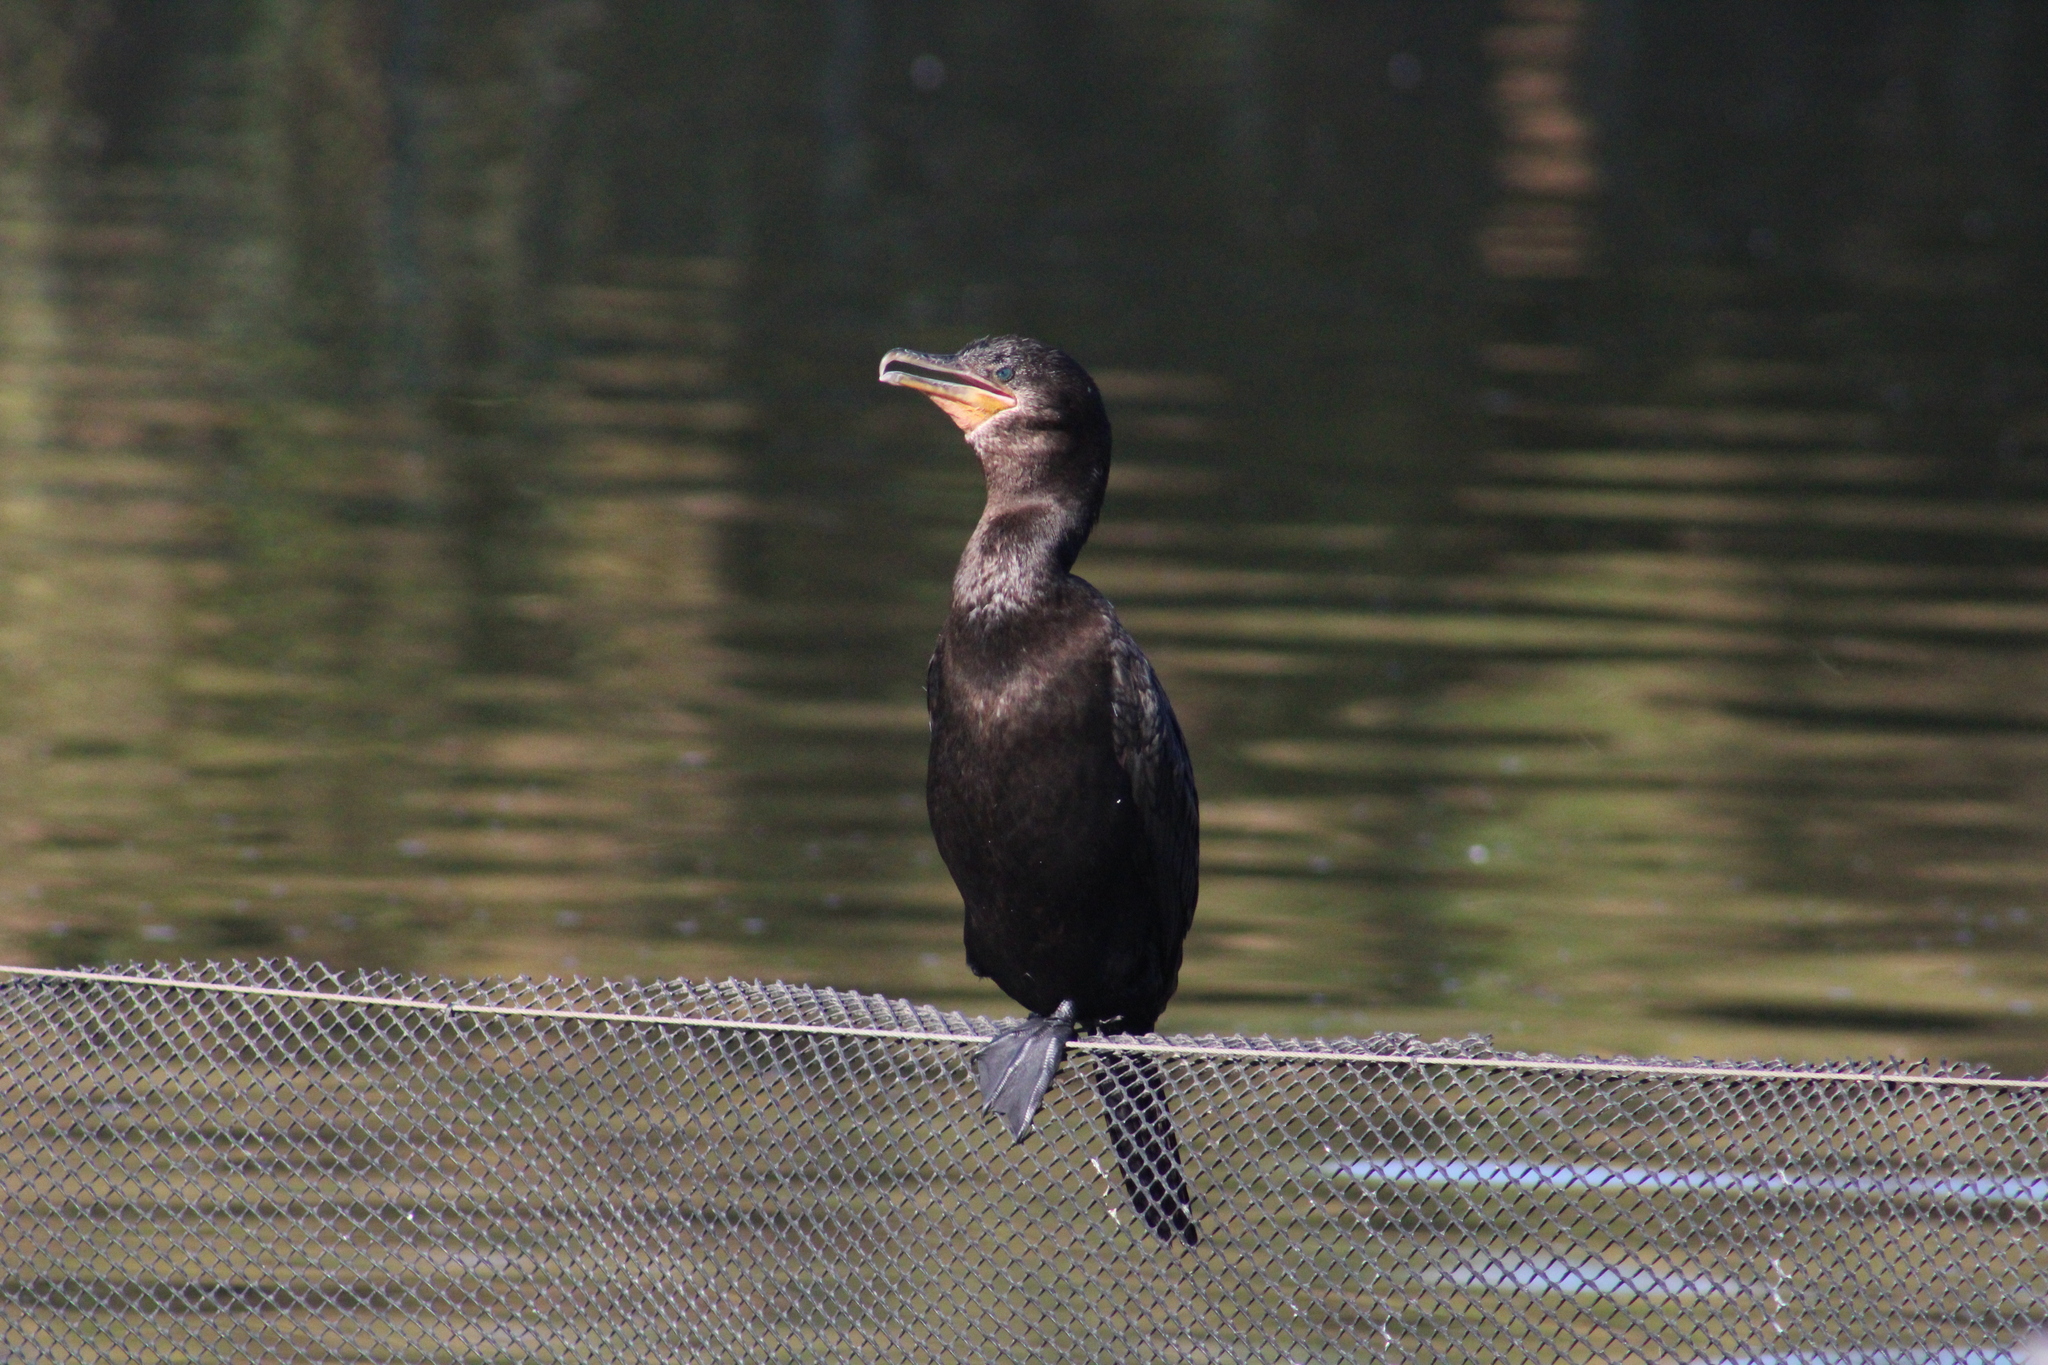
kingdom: Animalia
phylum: Chordata
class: Aves
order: Suliformes
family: Phalacrocoracidae
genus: Phalacrocorax
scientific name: Phalacrocorax brasilianus
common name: Neotropic cormorant
